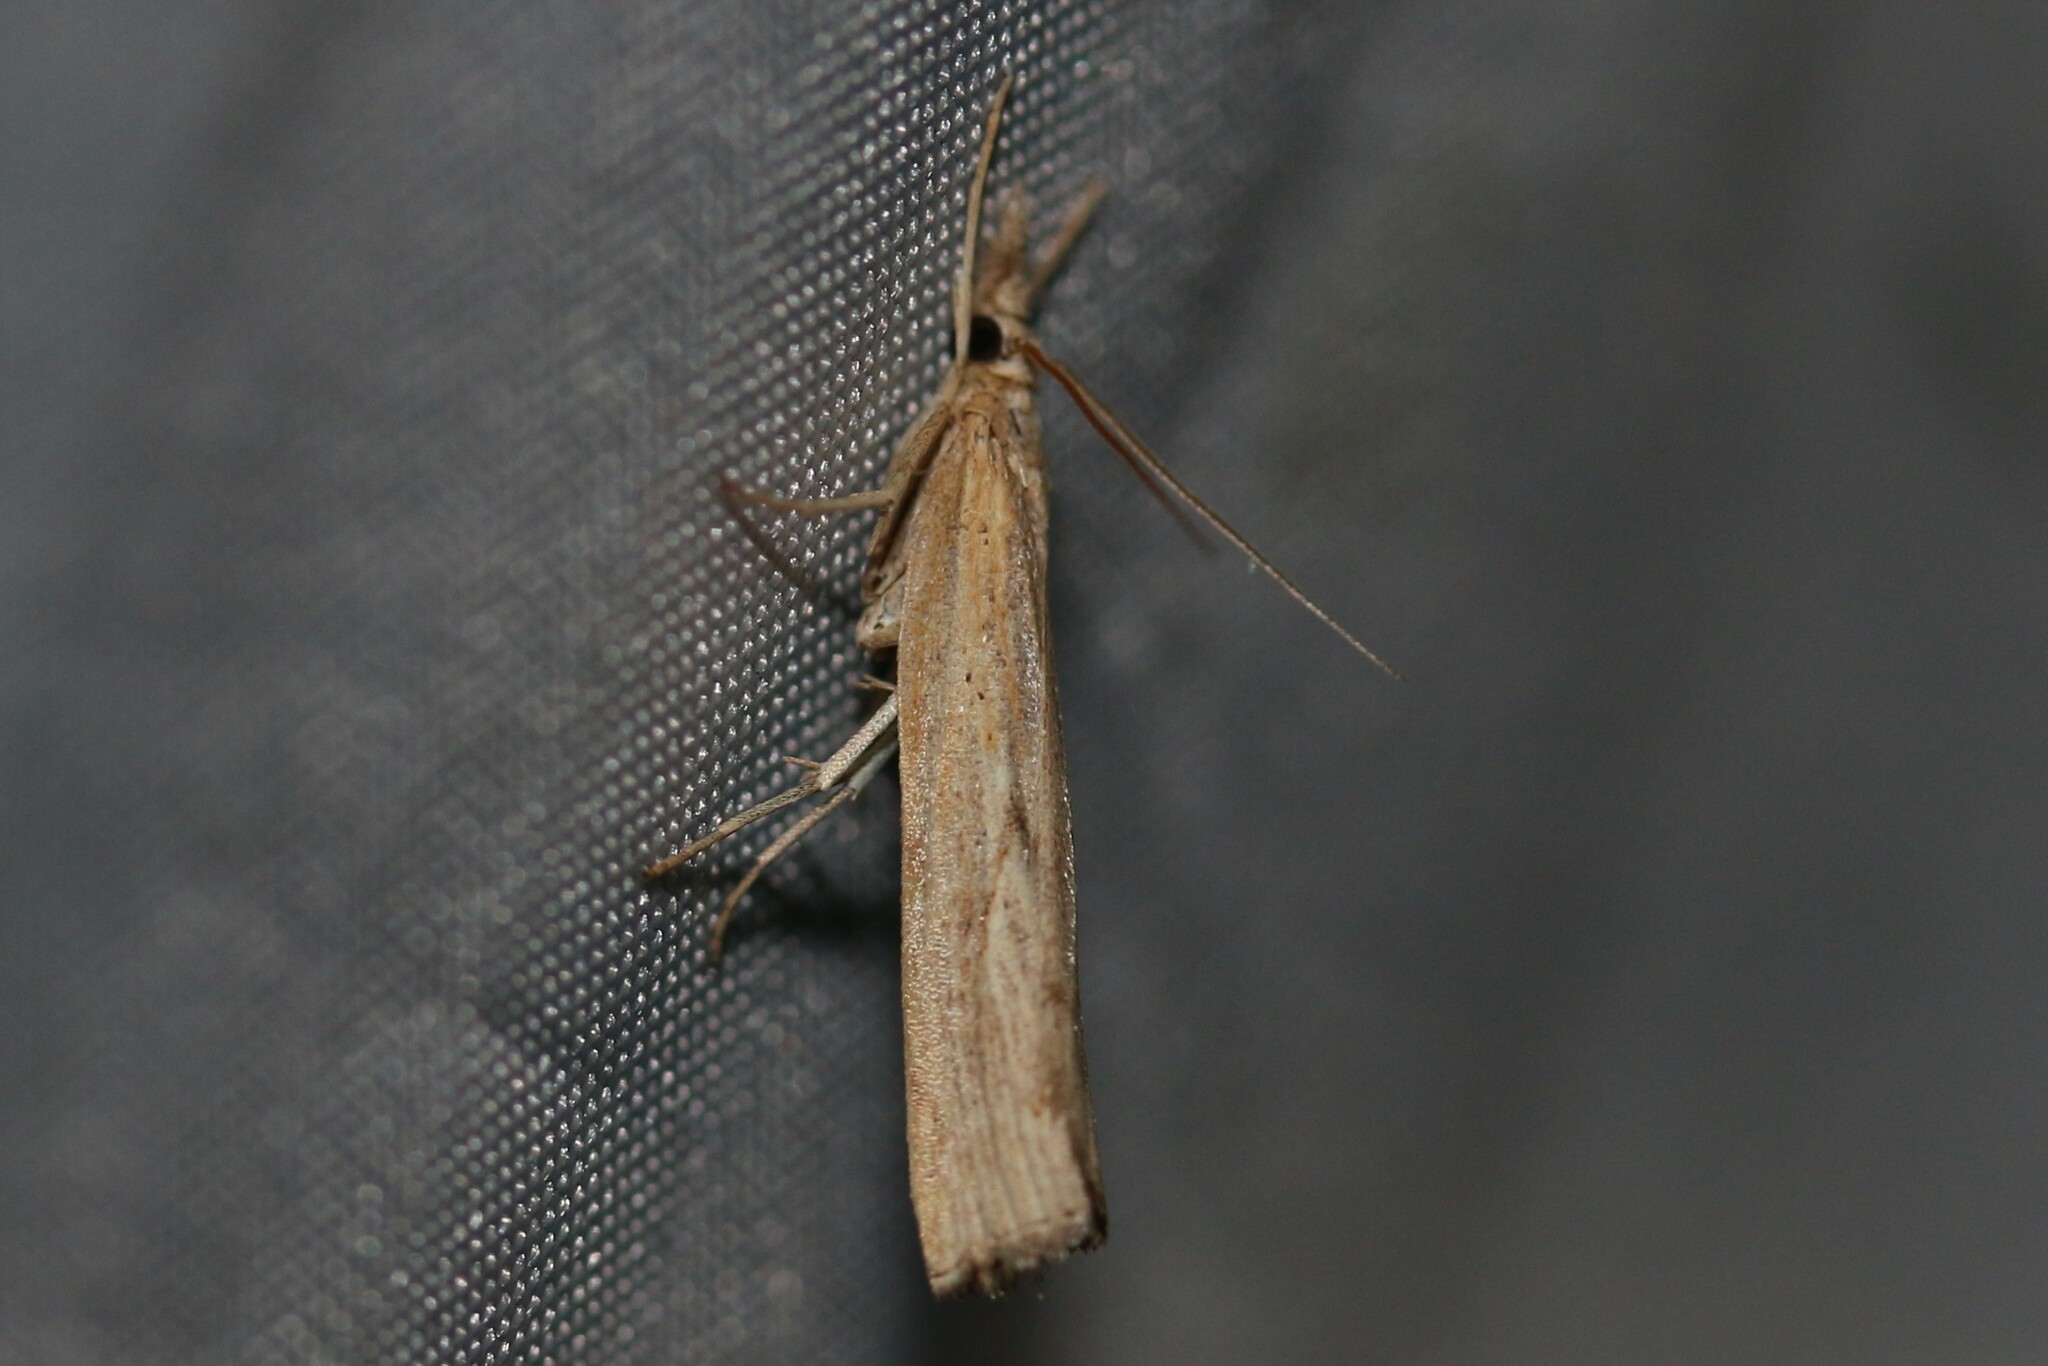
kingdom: Animalia
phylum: Arthropoda
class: Insecta
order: Lepidoptera
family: Crambidae
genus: Pediasia
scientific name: Pediasia contaminella
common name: Waste grass-veneer
